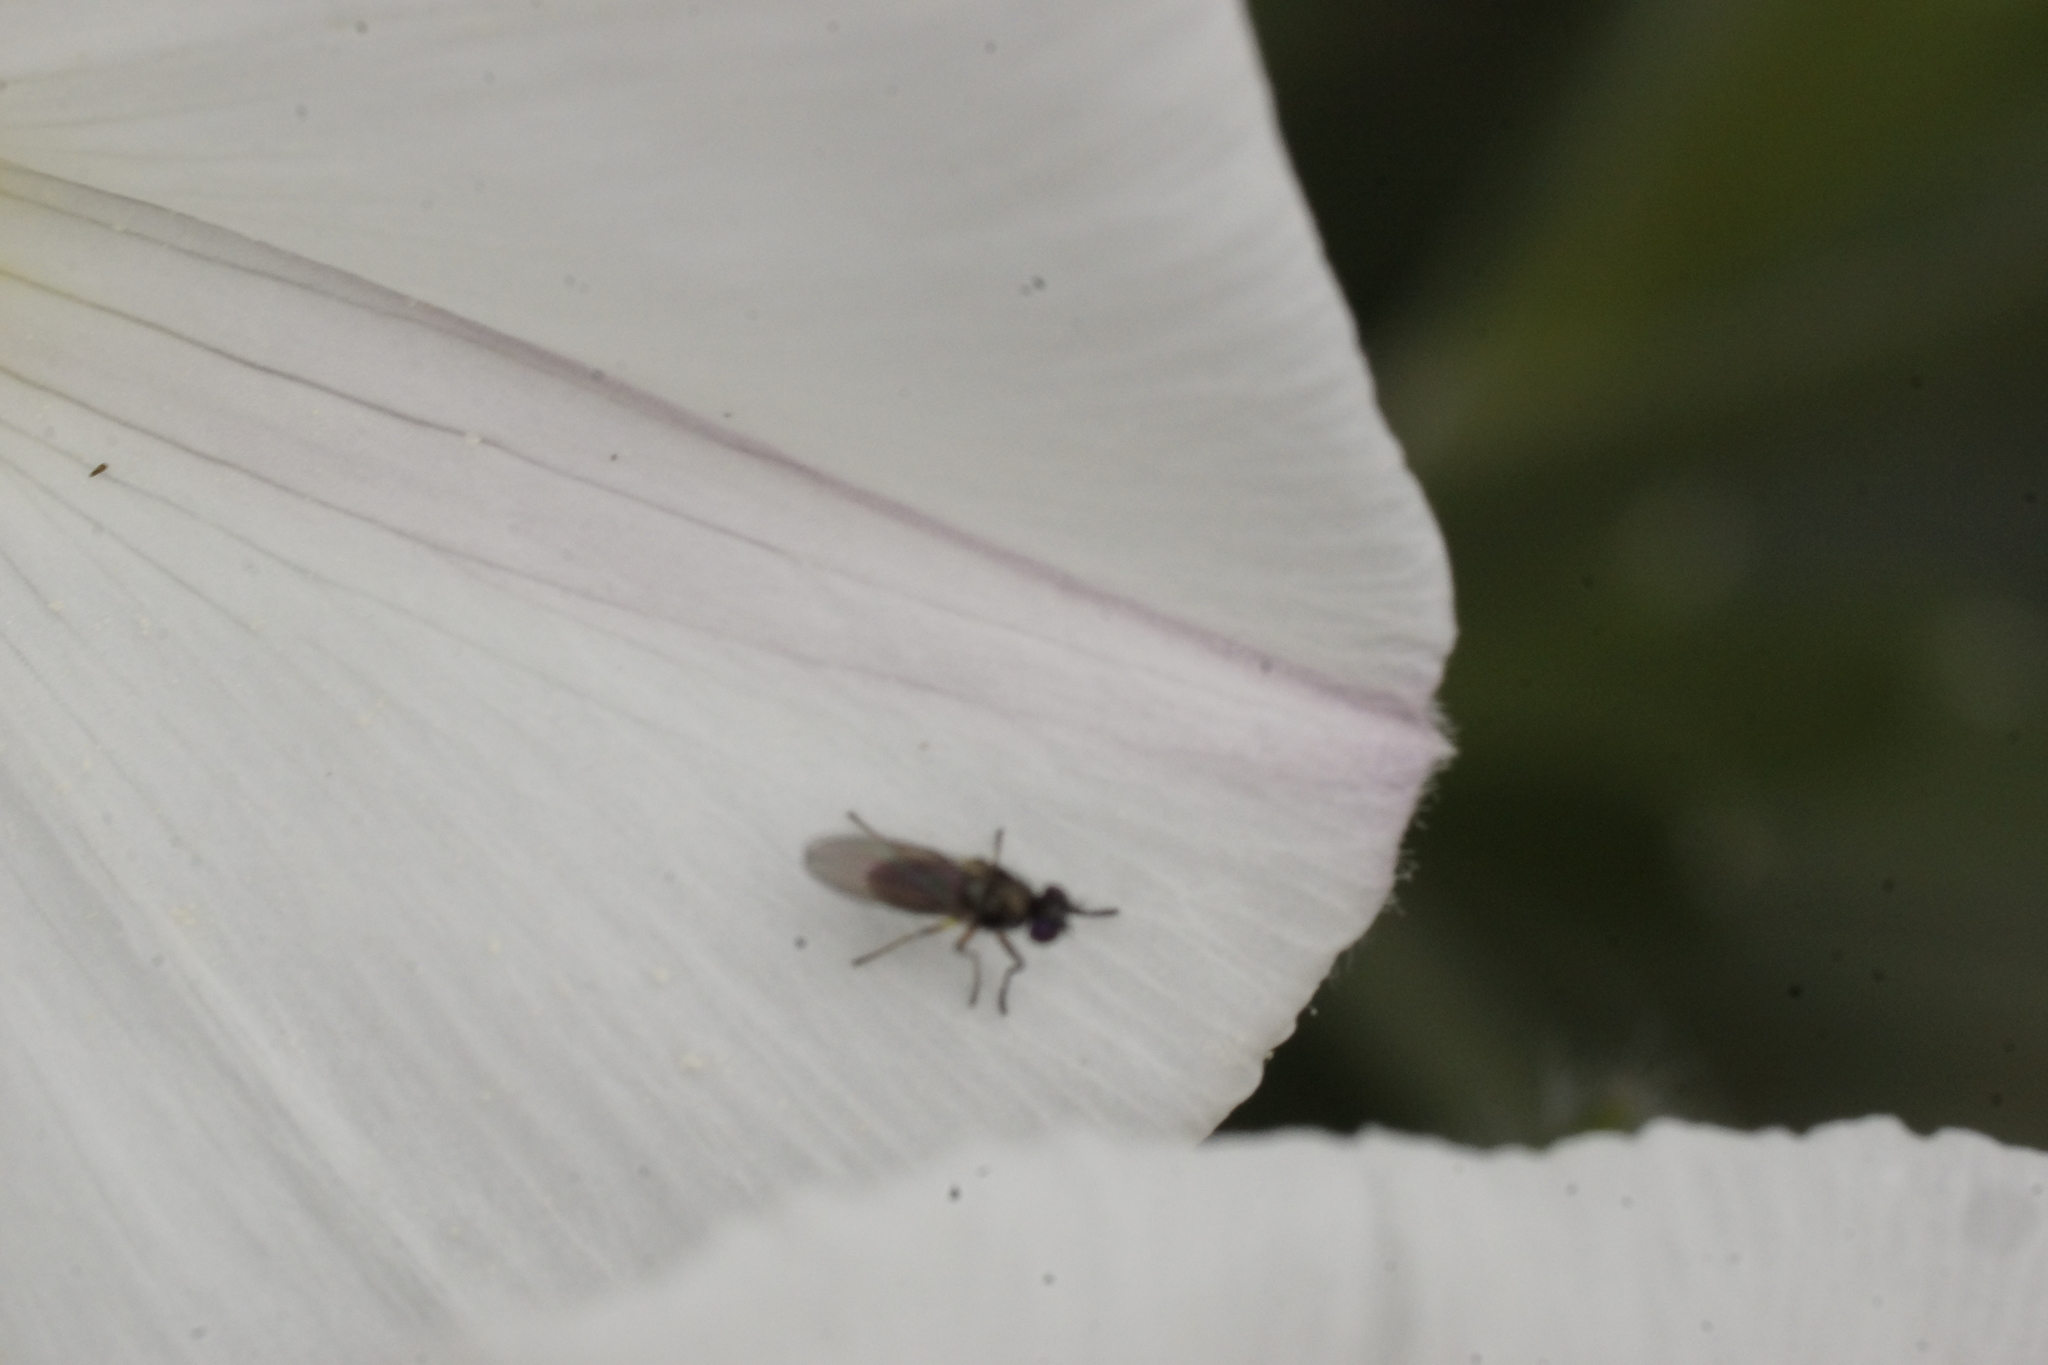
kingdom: Animalia
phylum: Arthropoda
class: Insecta
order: Diptera
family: Ephydridae
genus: Hydrellia
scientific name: Hydrellia tritici
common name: Shore fly
